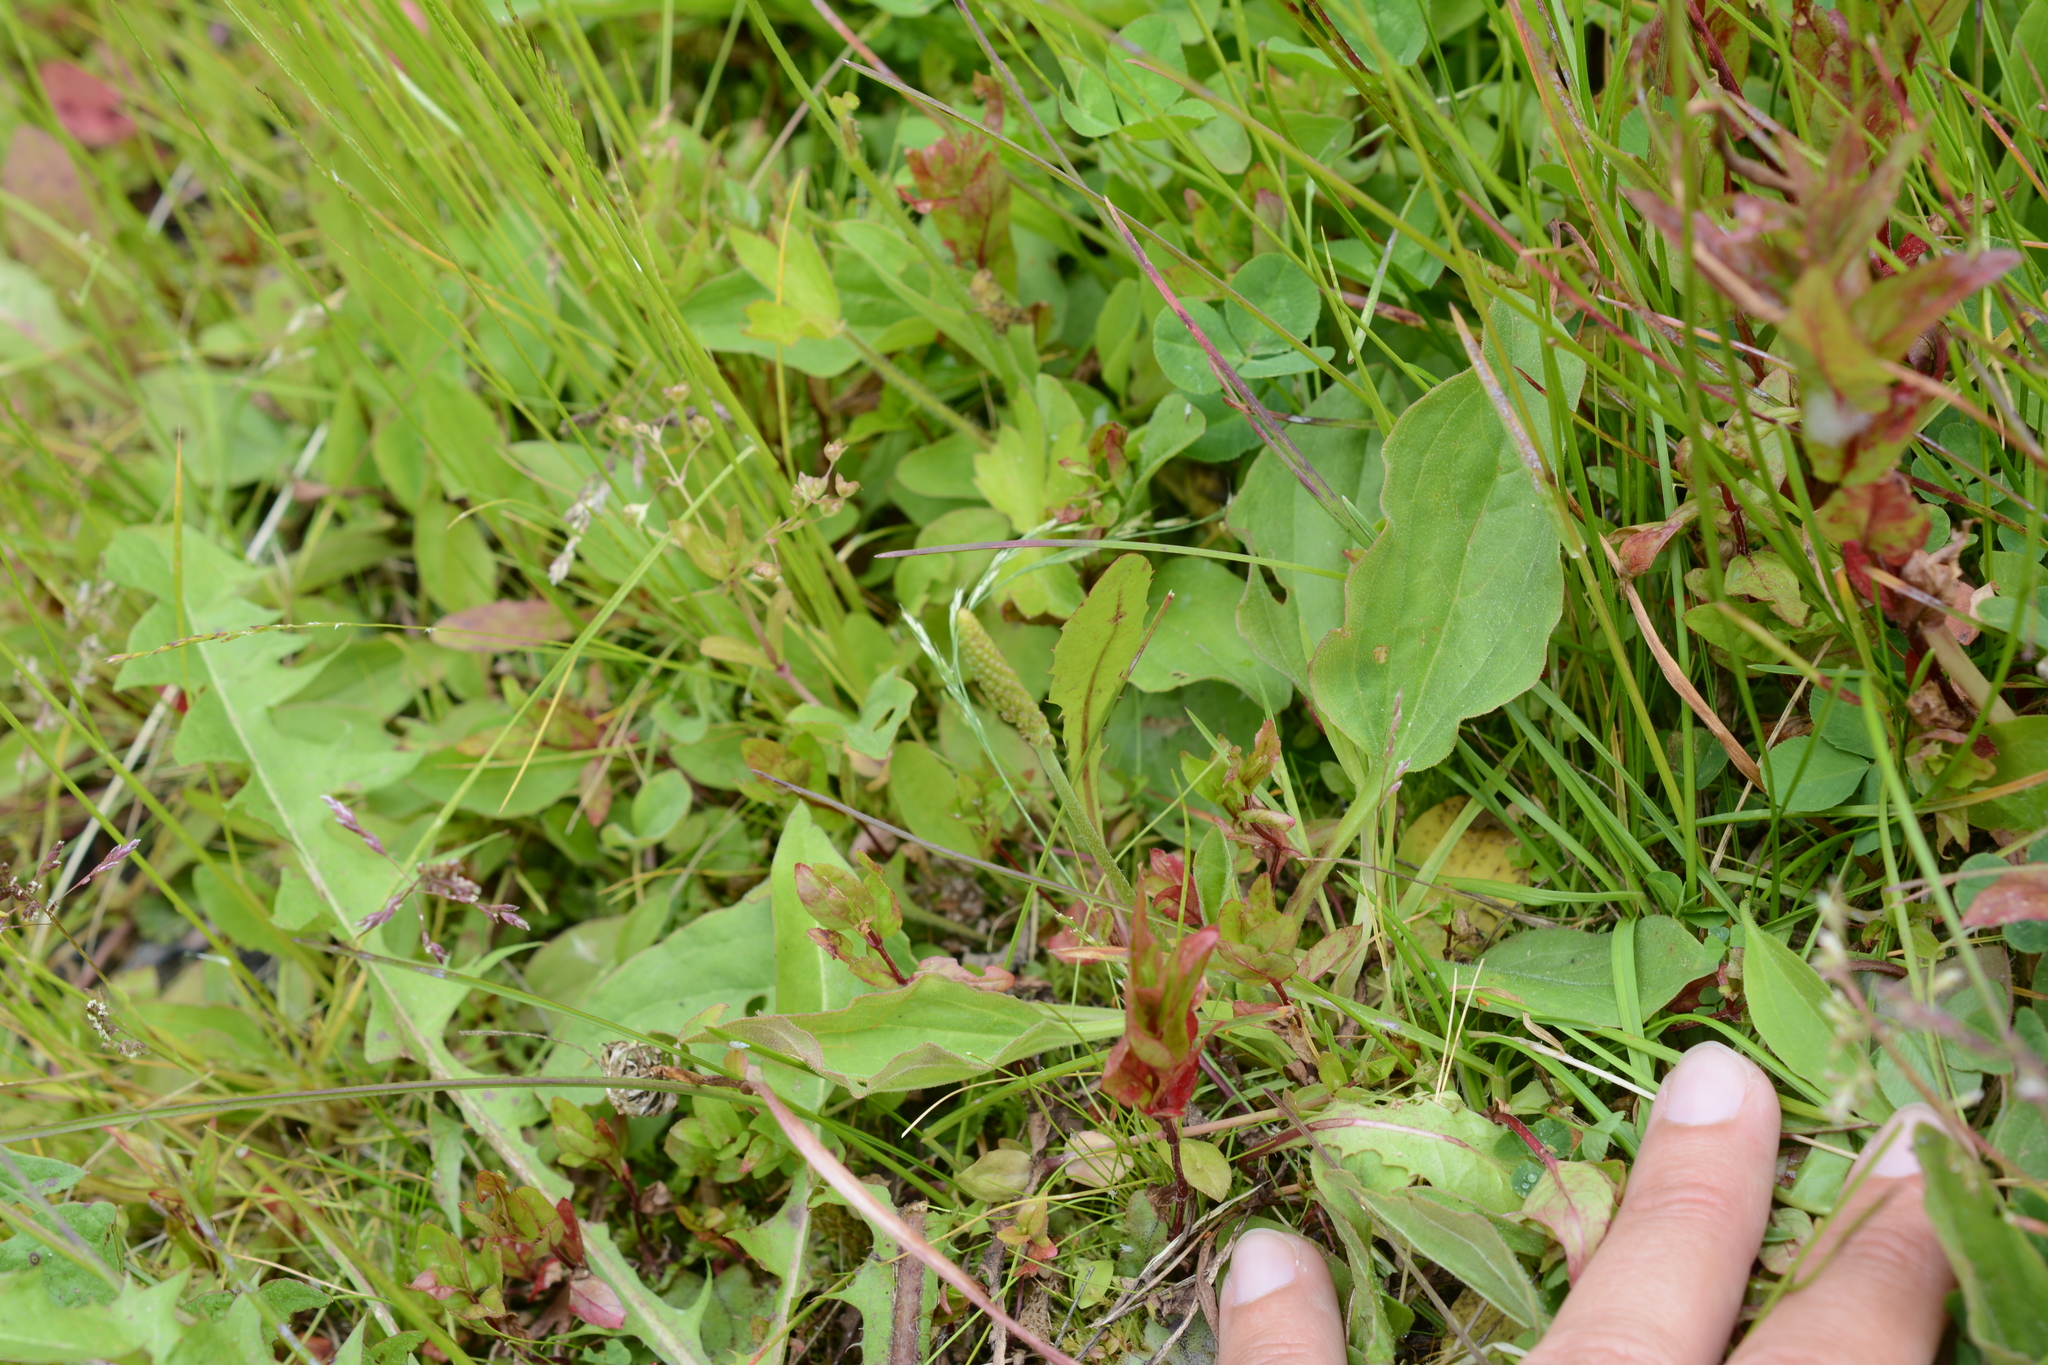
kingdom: Plantae
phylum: Tracheophyta
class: Magnoliopsida
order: Lamiales
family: Plantaginaceae
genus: Plantago
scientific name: Plantago major
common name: Common plantain
